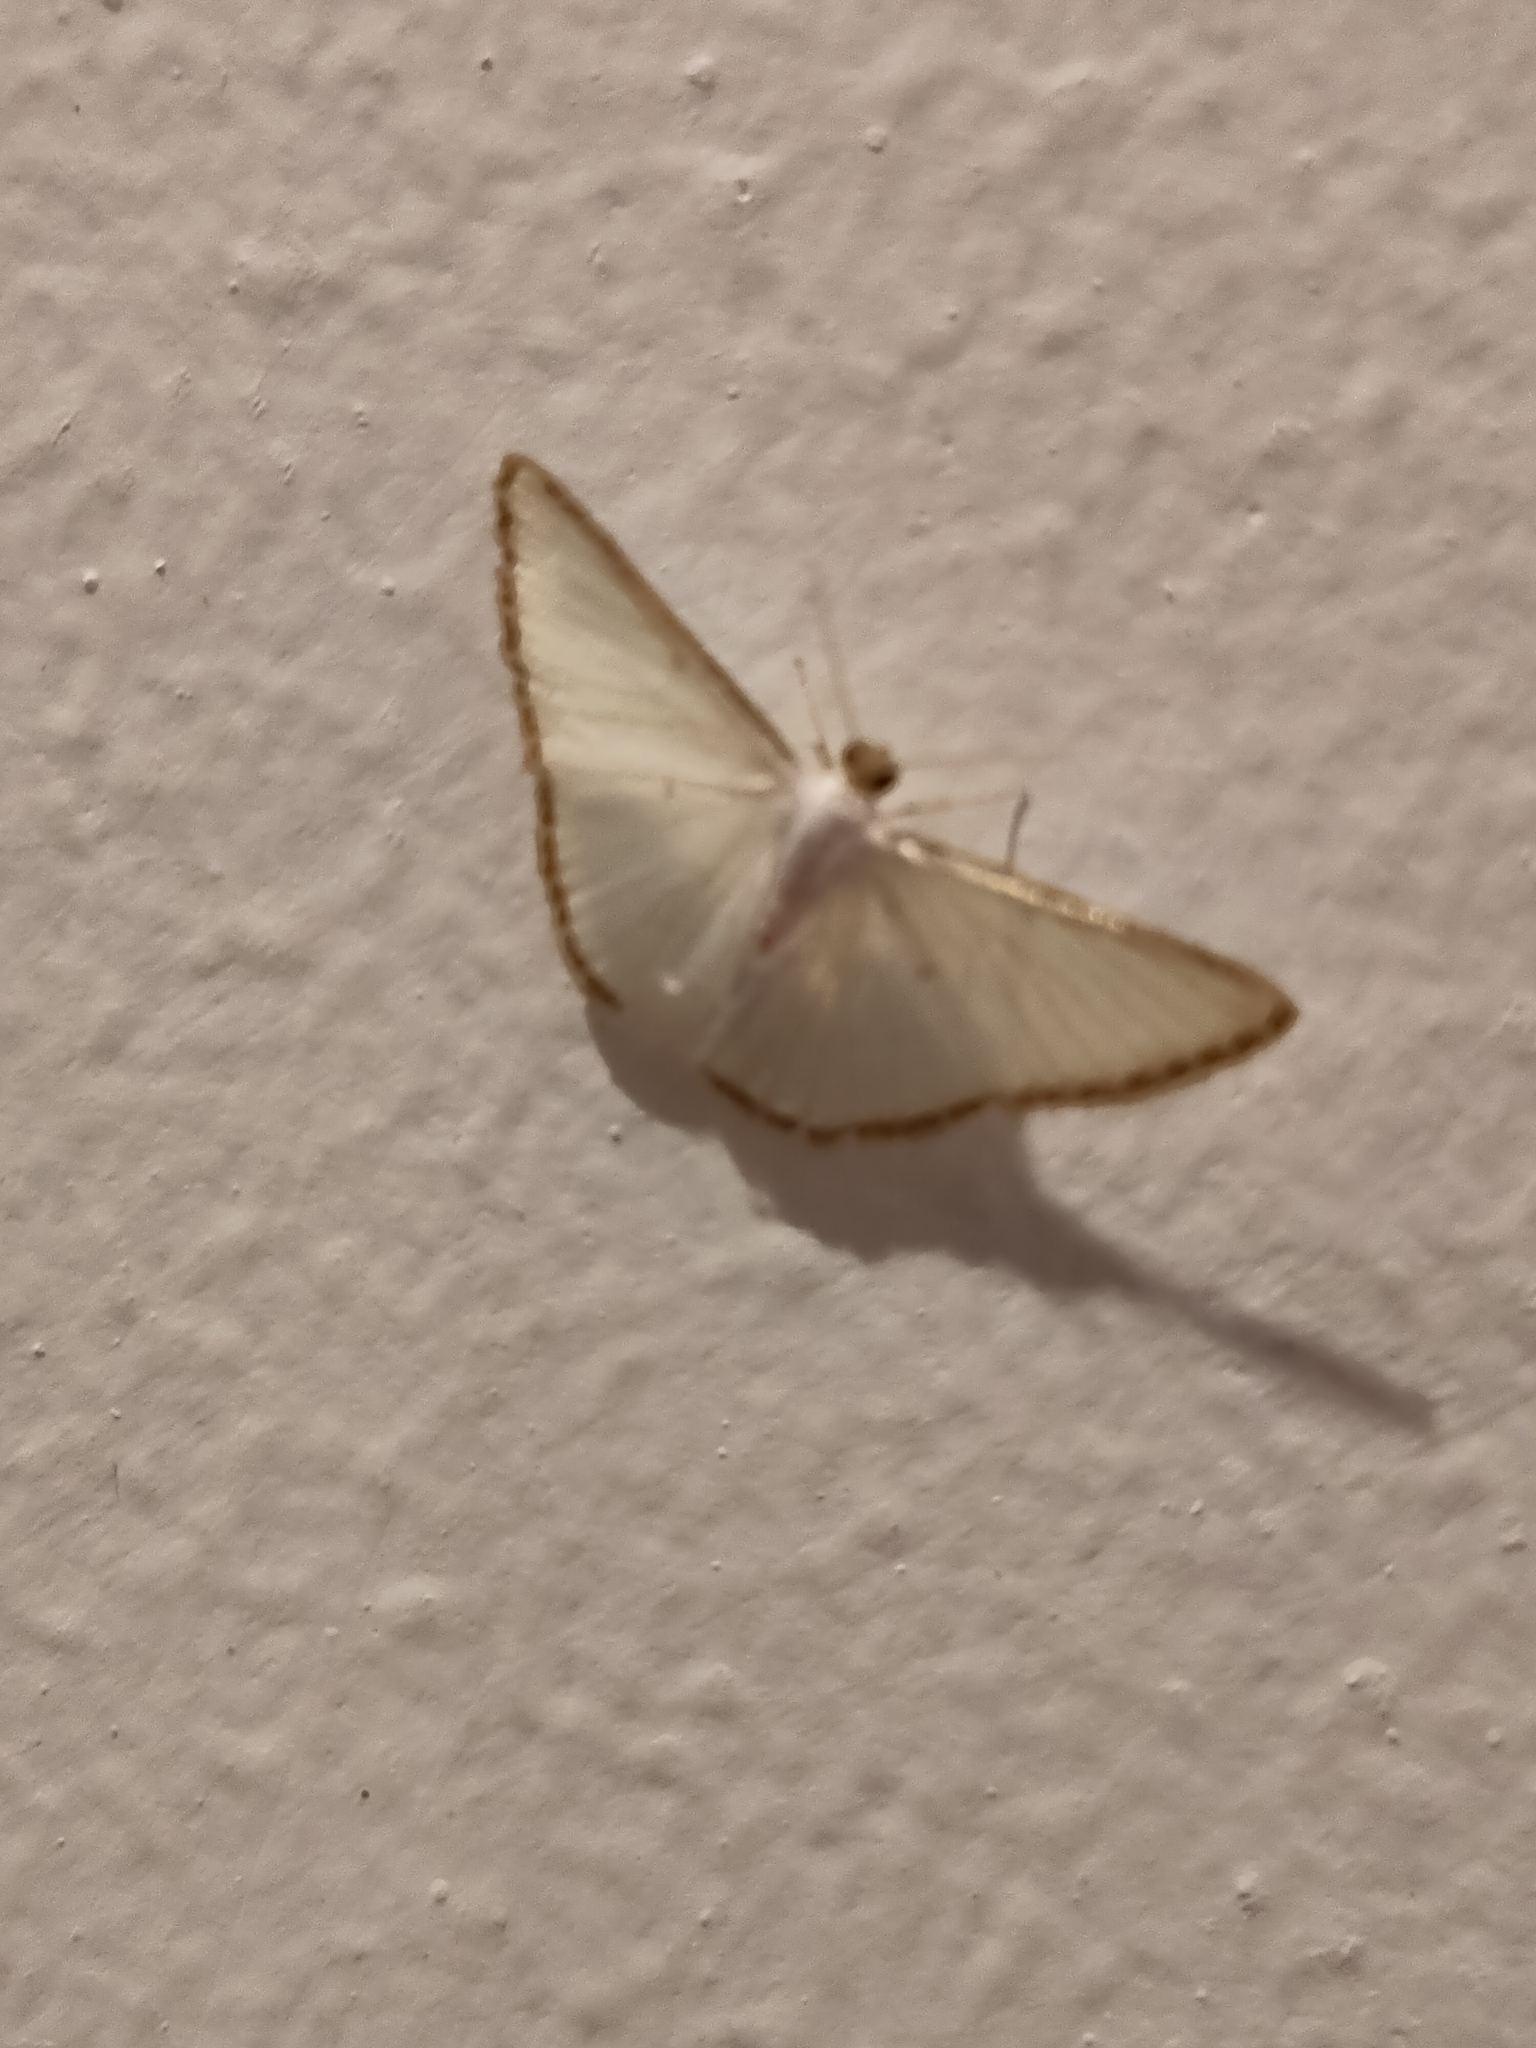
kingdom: Animalia
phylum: Arthropoda
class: Insecta
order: Lepidoptera
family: Geometridae
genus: Leuciris
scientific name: Leuciris fimbriaria
